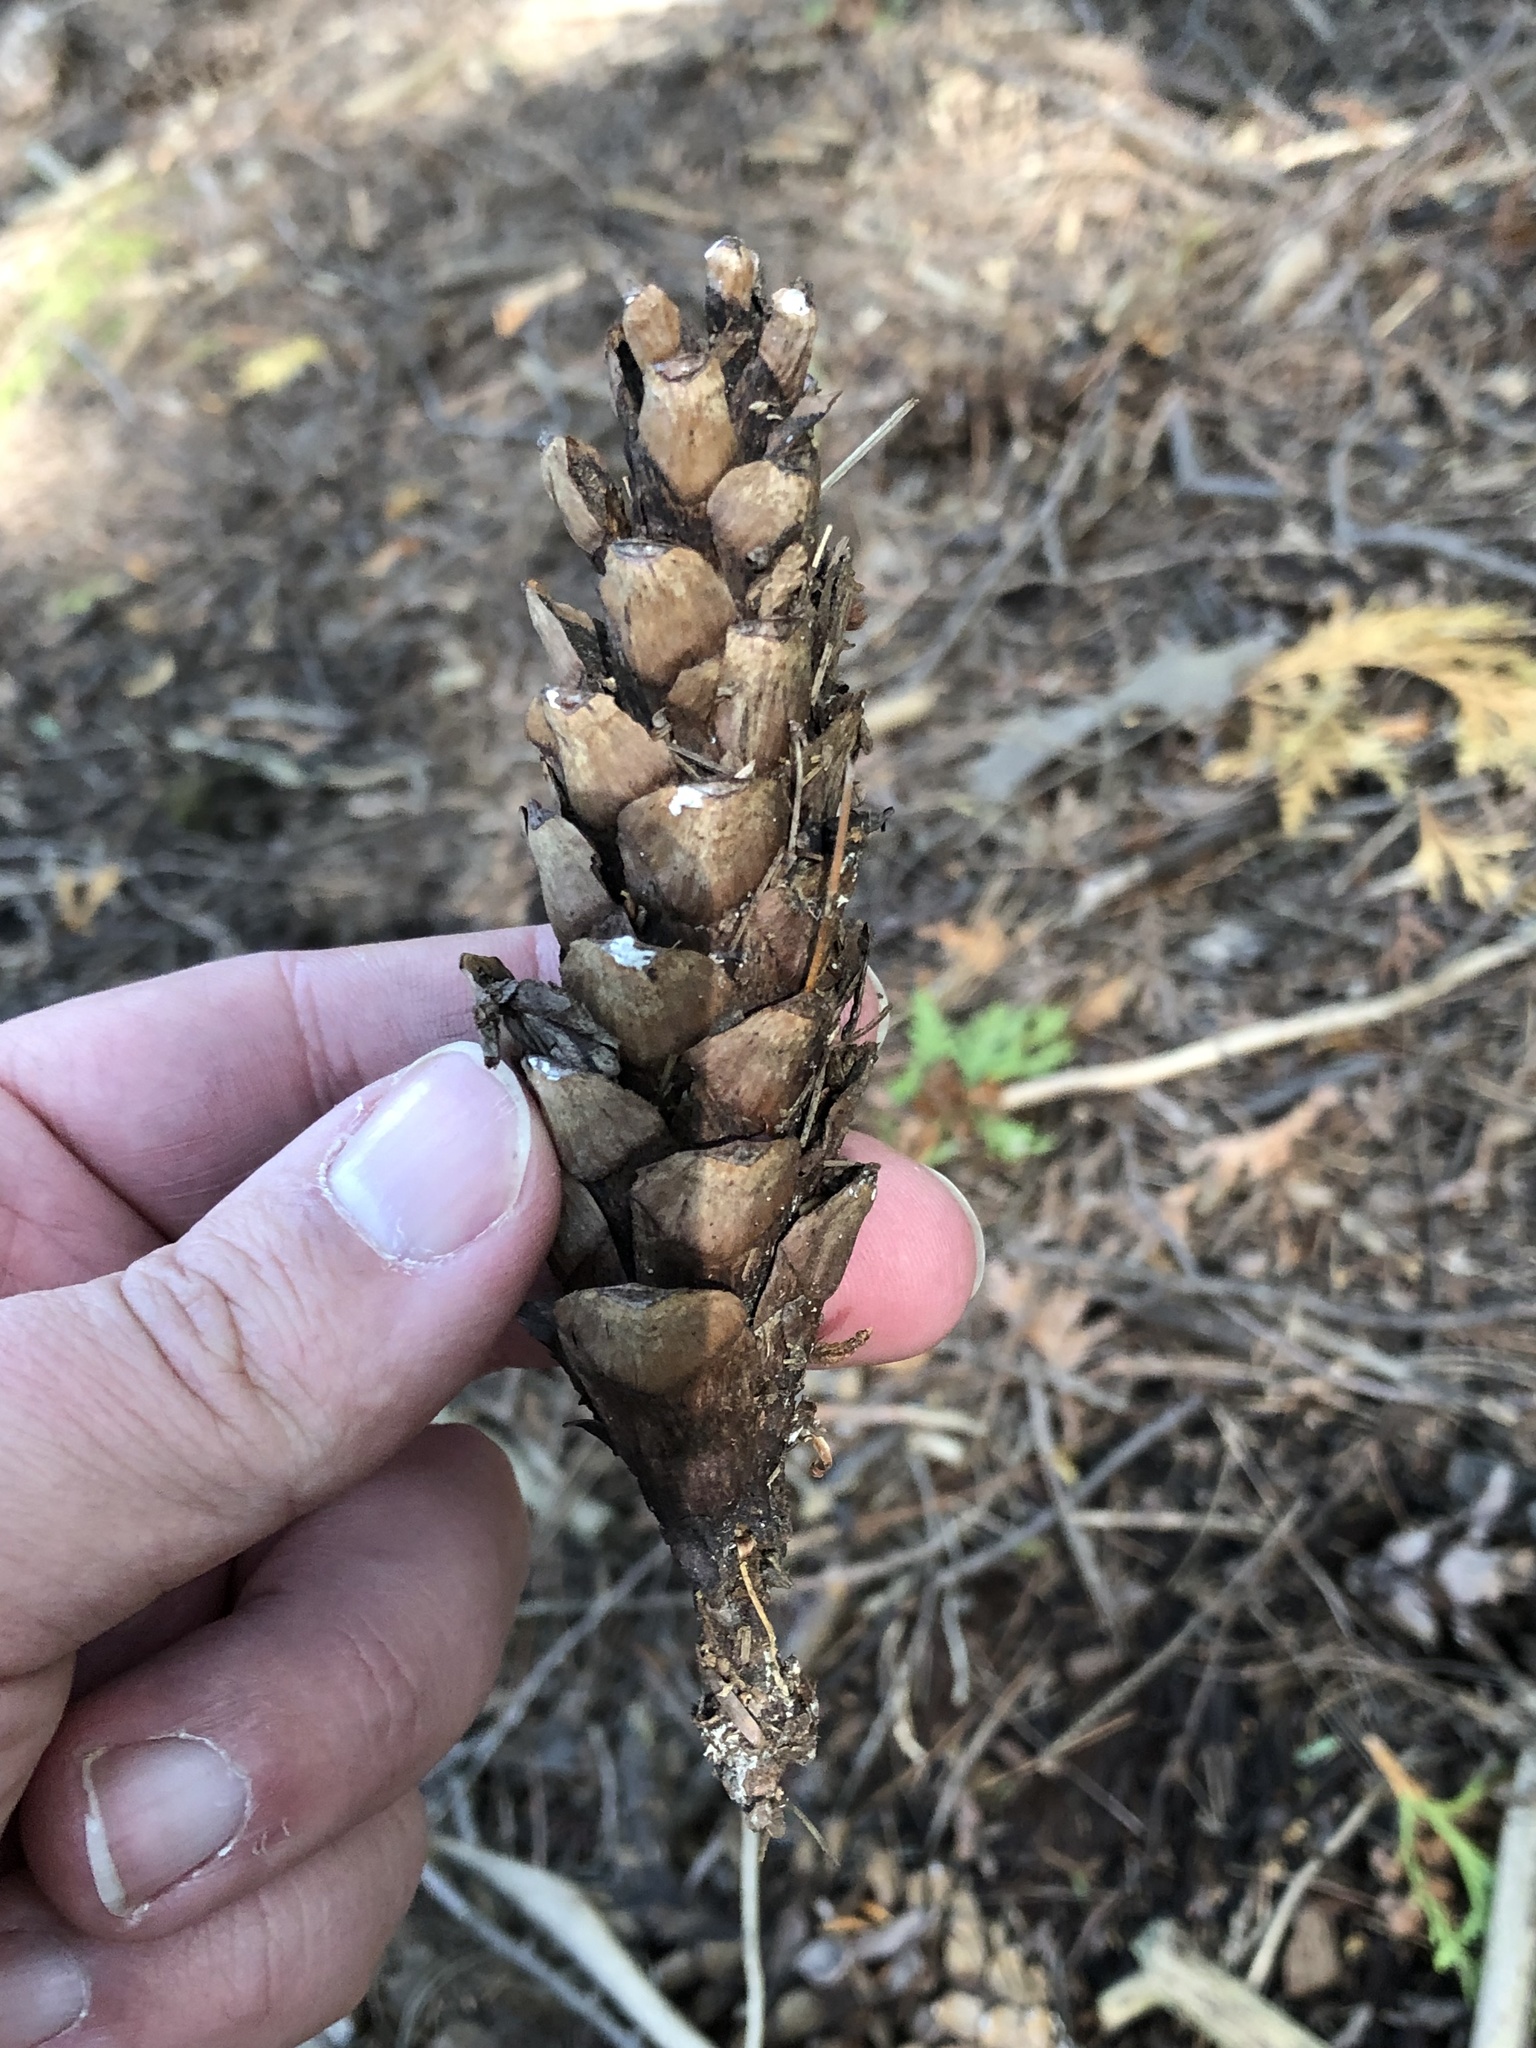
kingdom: Plantae
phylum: Tracheophyta
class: Pinopsida
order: Pinales
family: Pinaceae
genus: Pinus
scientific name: Pinus strobus
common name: Weymouth pine
